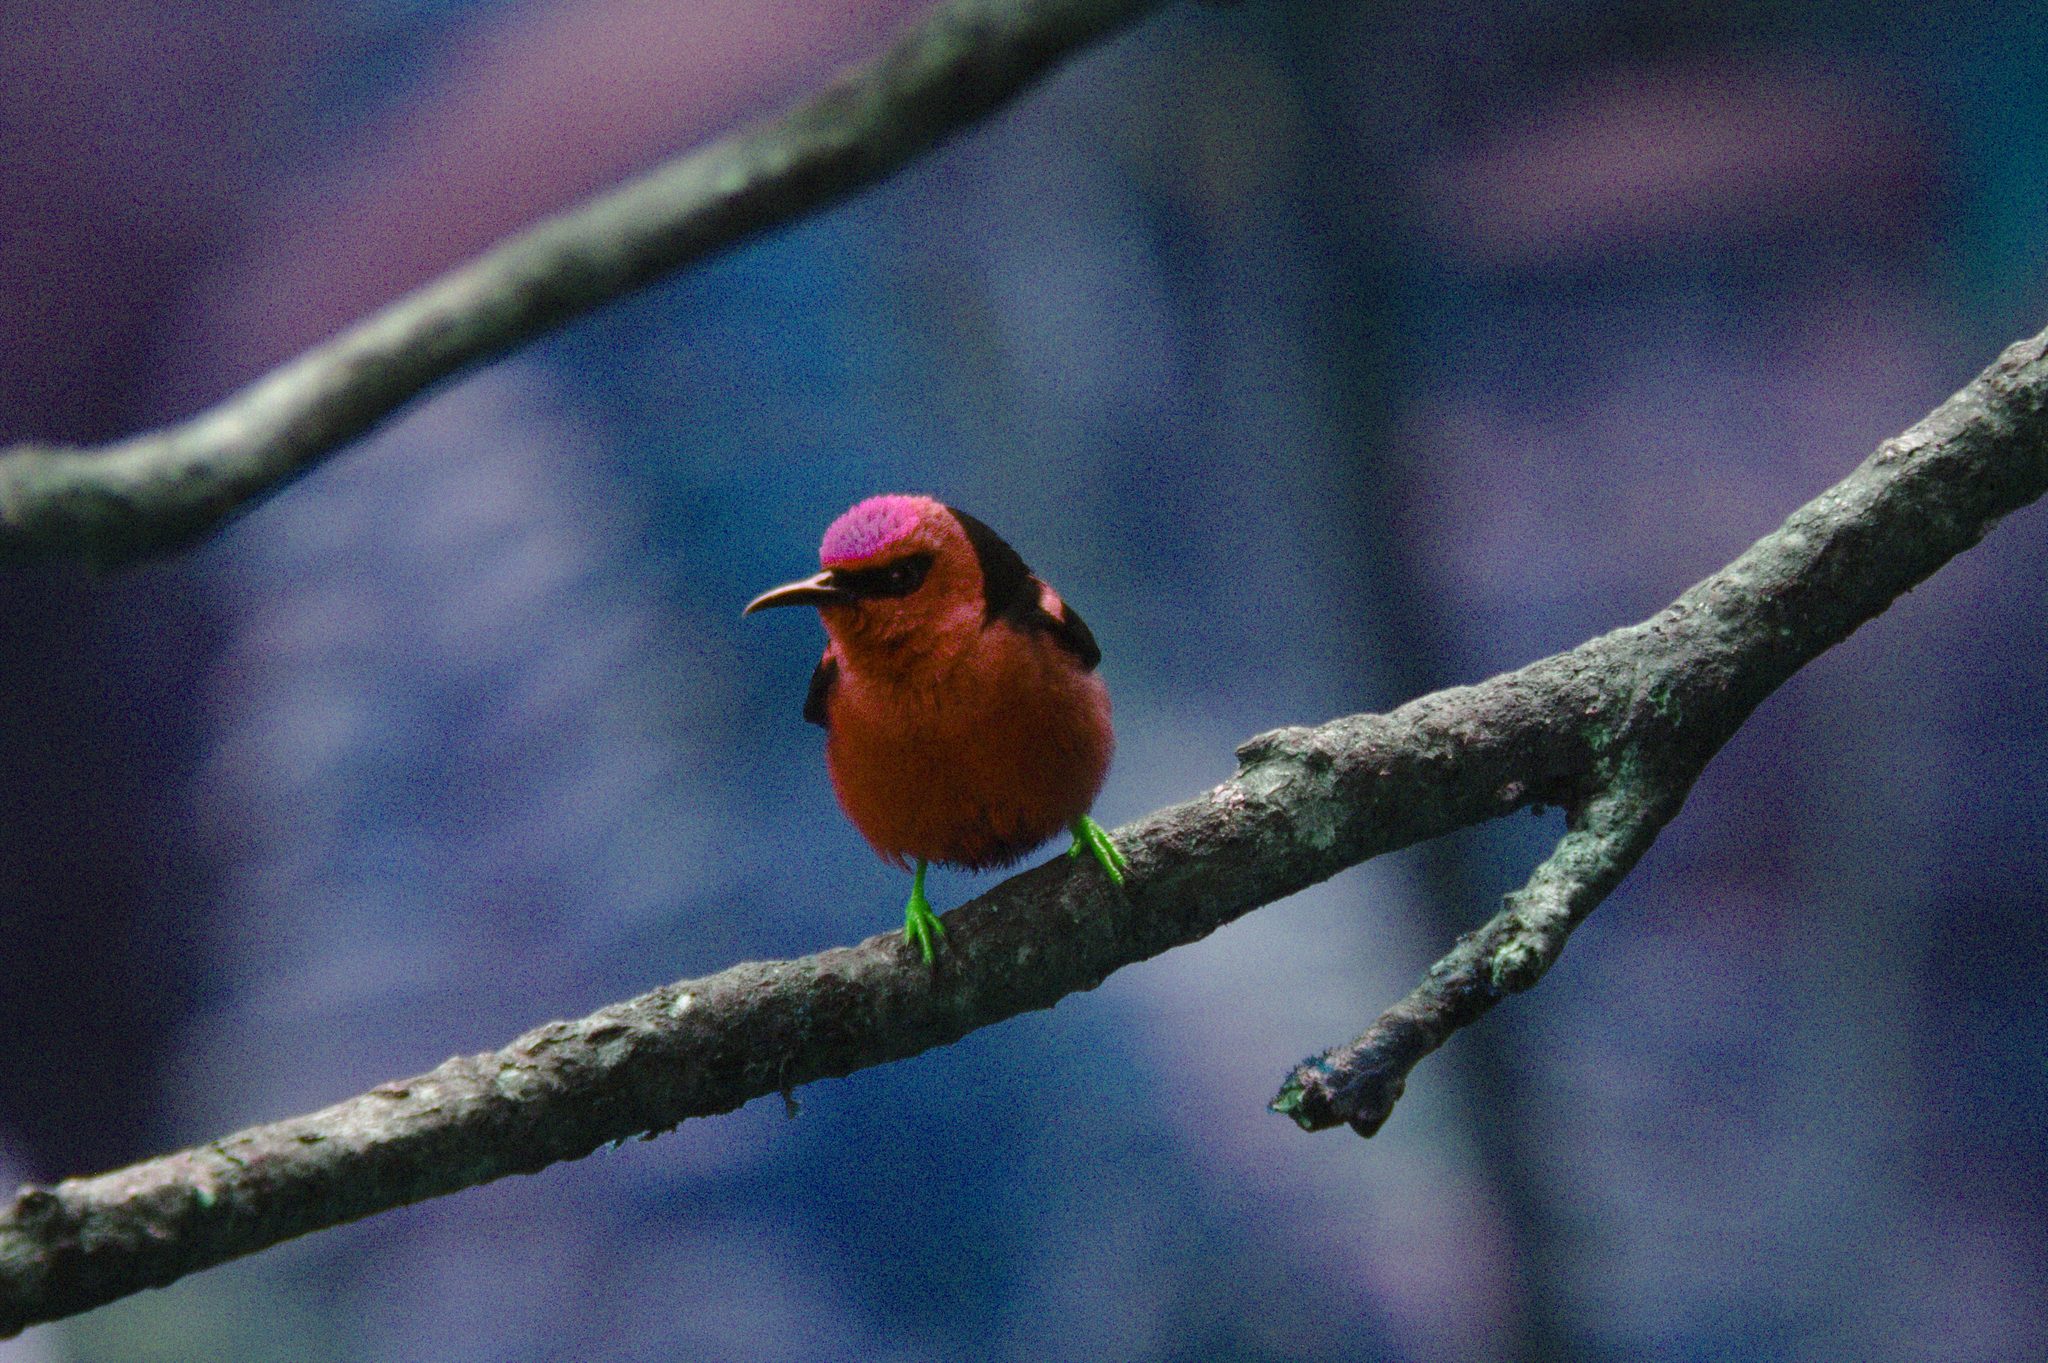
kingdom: Animalia
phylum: Chordata
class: Aves
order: Passeriformes
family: Thraupidae
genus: Cyanerpes
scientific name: Cyanerpes cyaneus
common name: Red-legged honeycreeper
